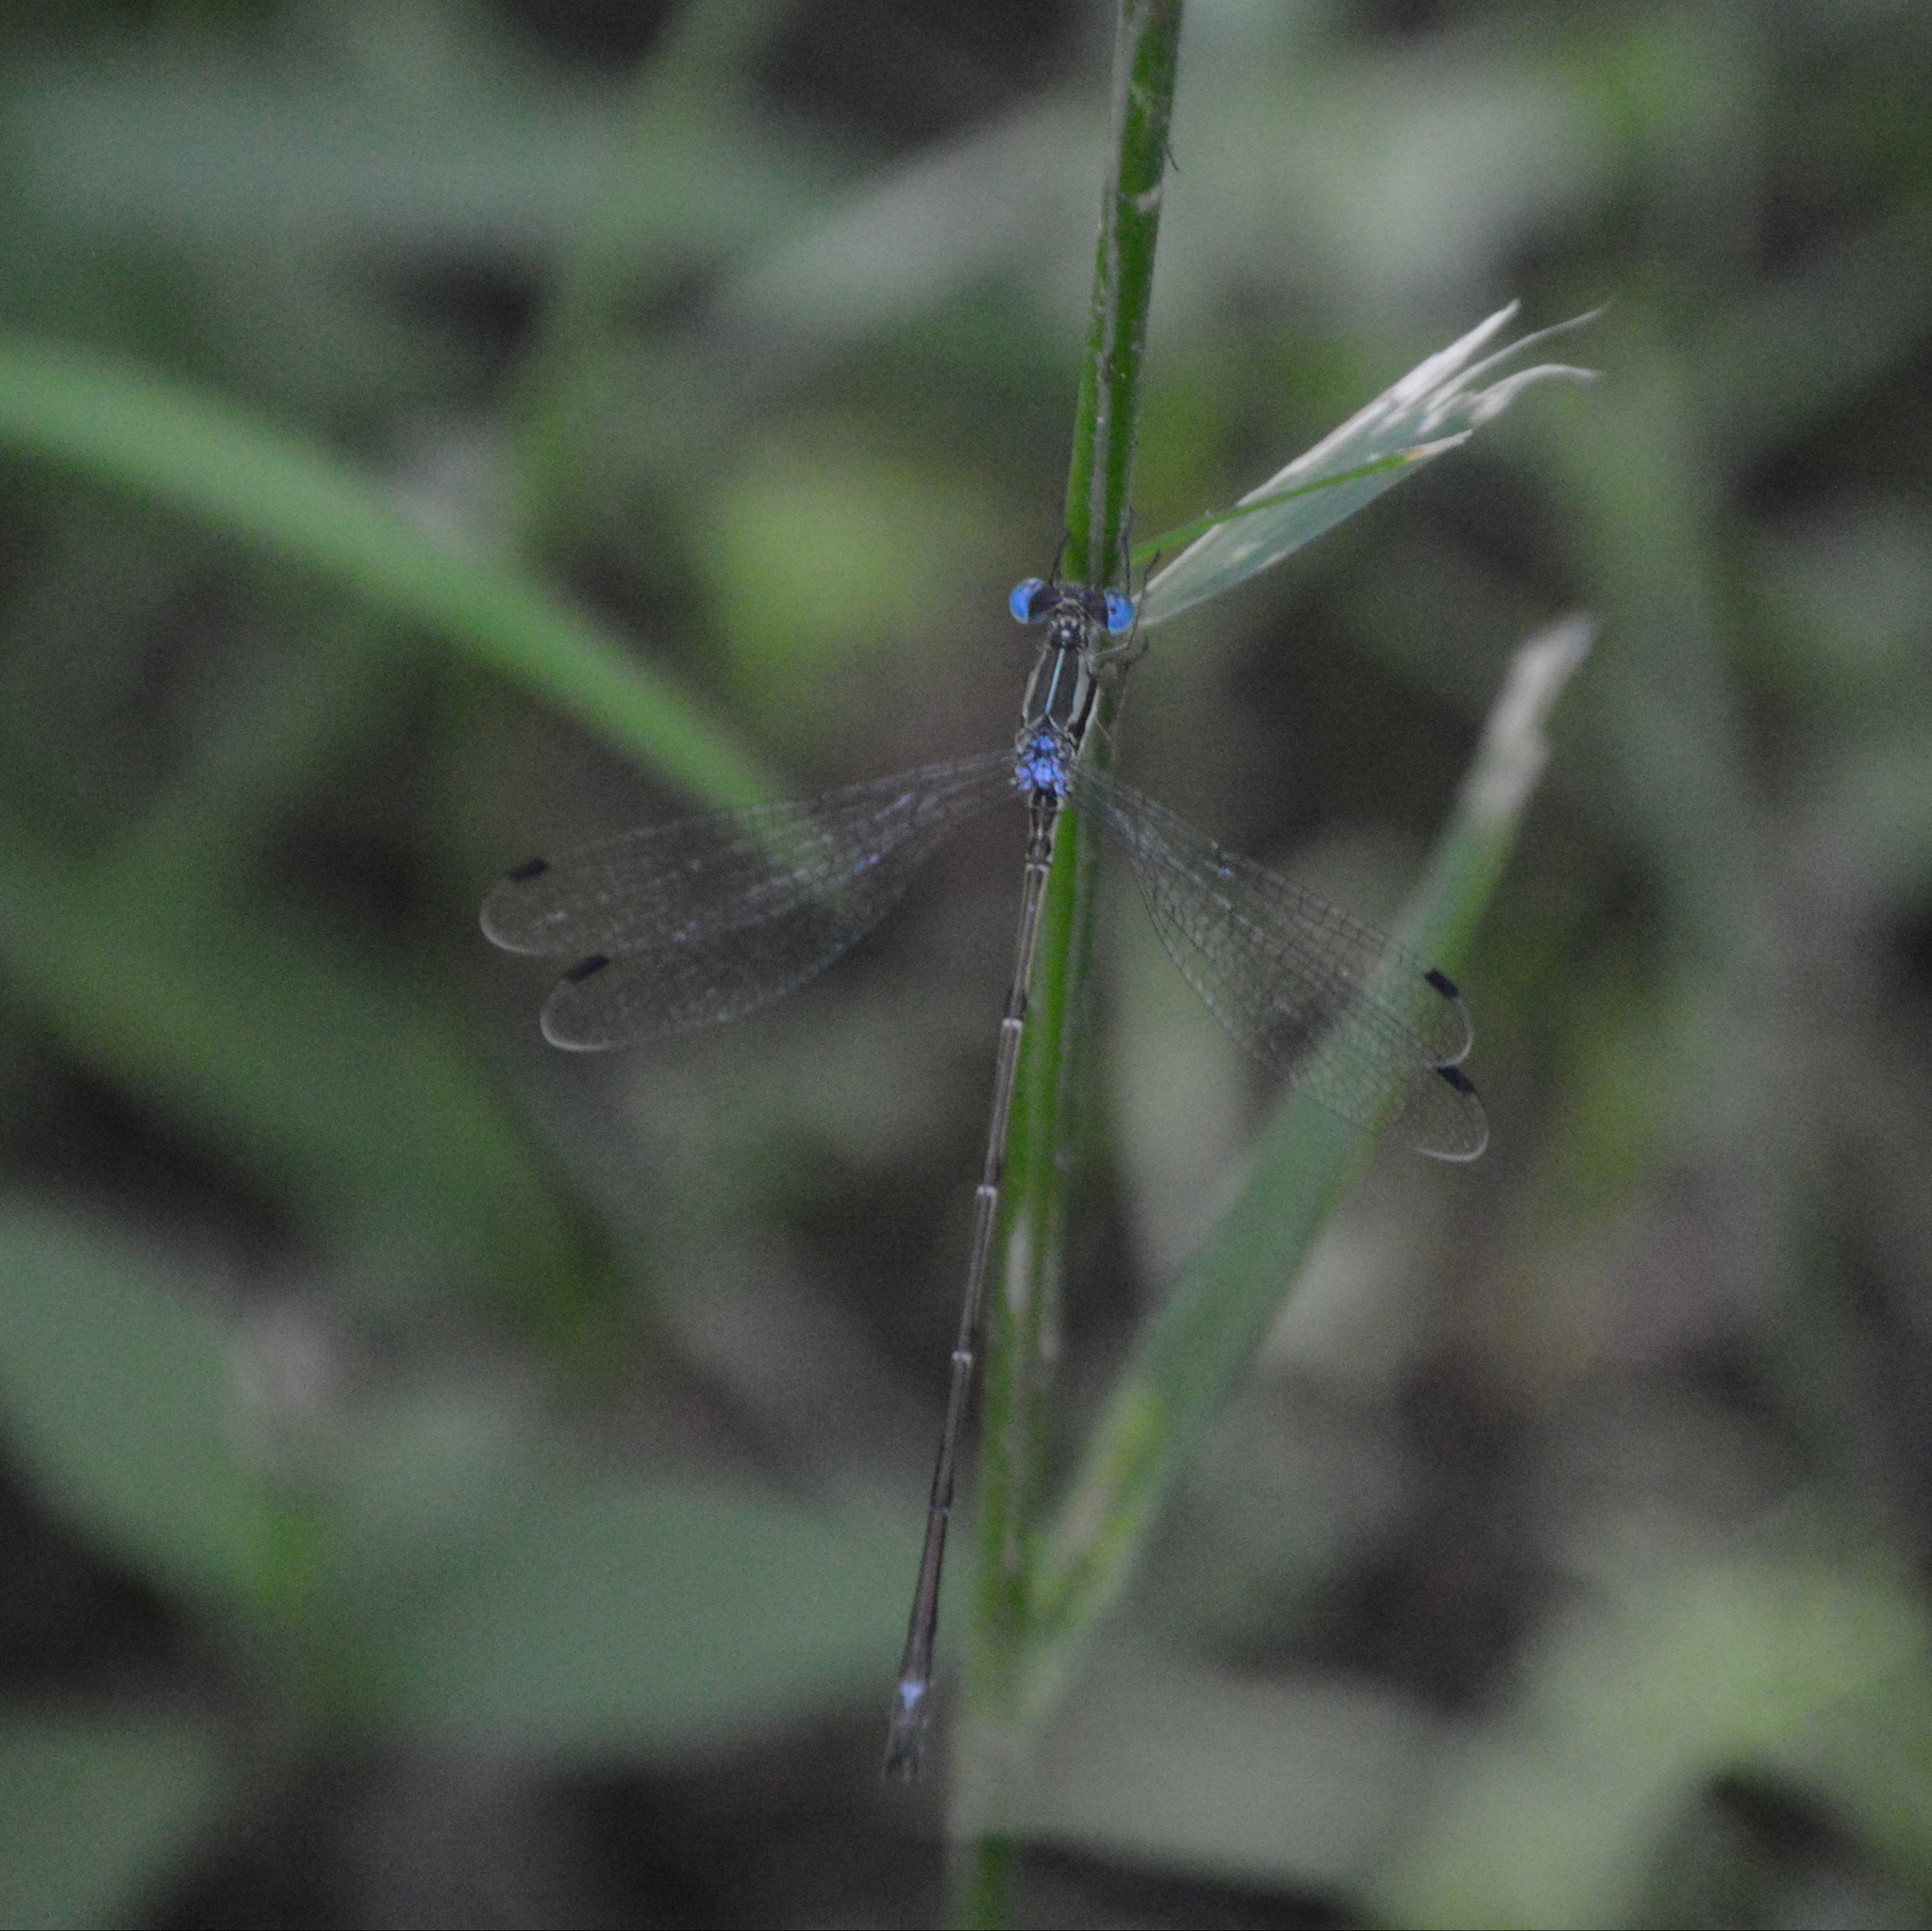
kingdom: Animalia
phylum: Arthropoda
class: Insecta
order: Odonata
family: Lestidae
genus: Lestes
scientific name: Lestes rectangularis
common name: Slender spreadwing
